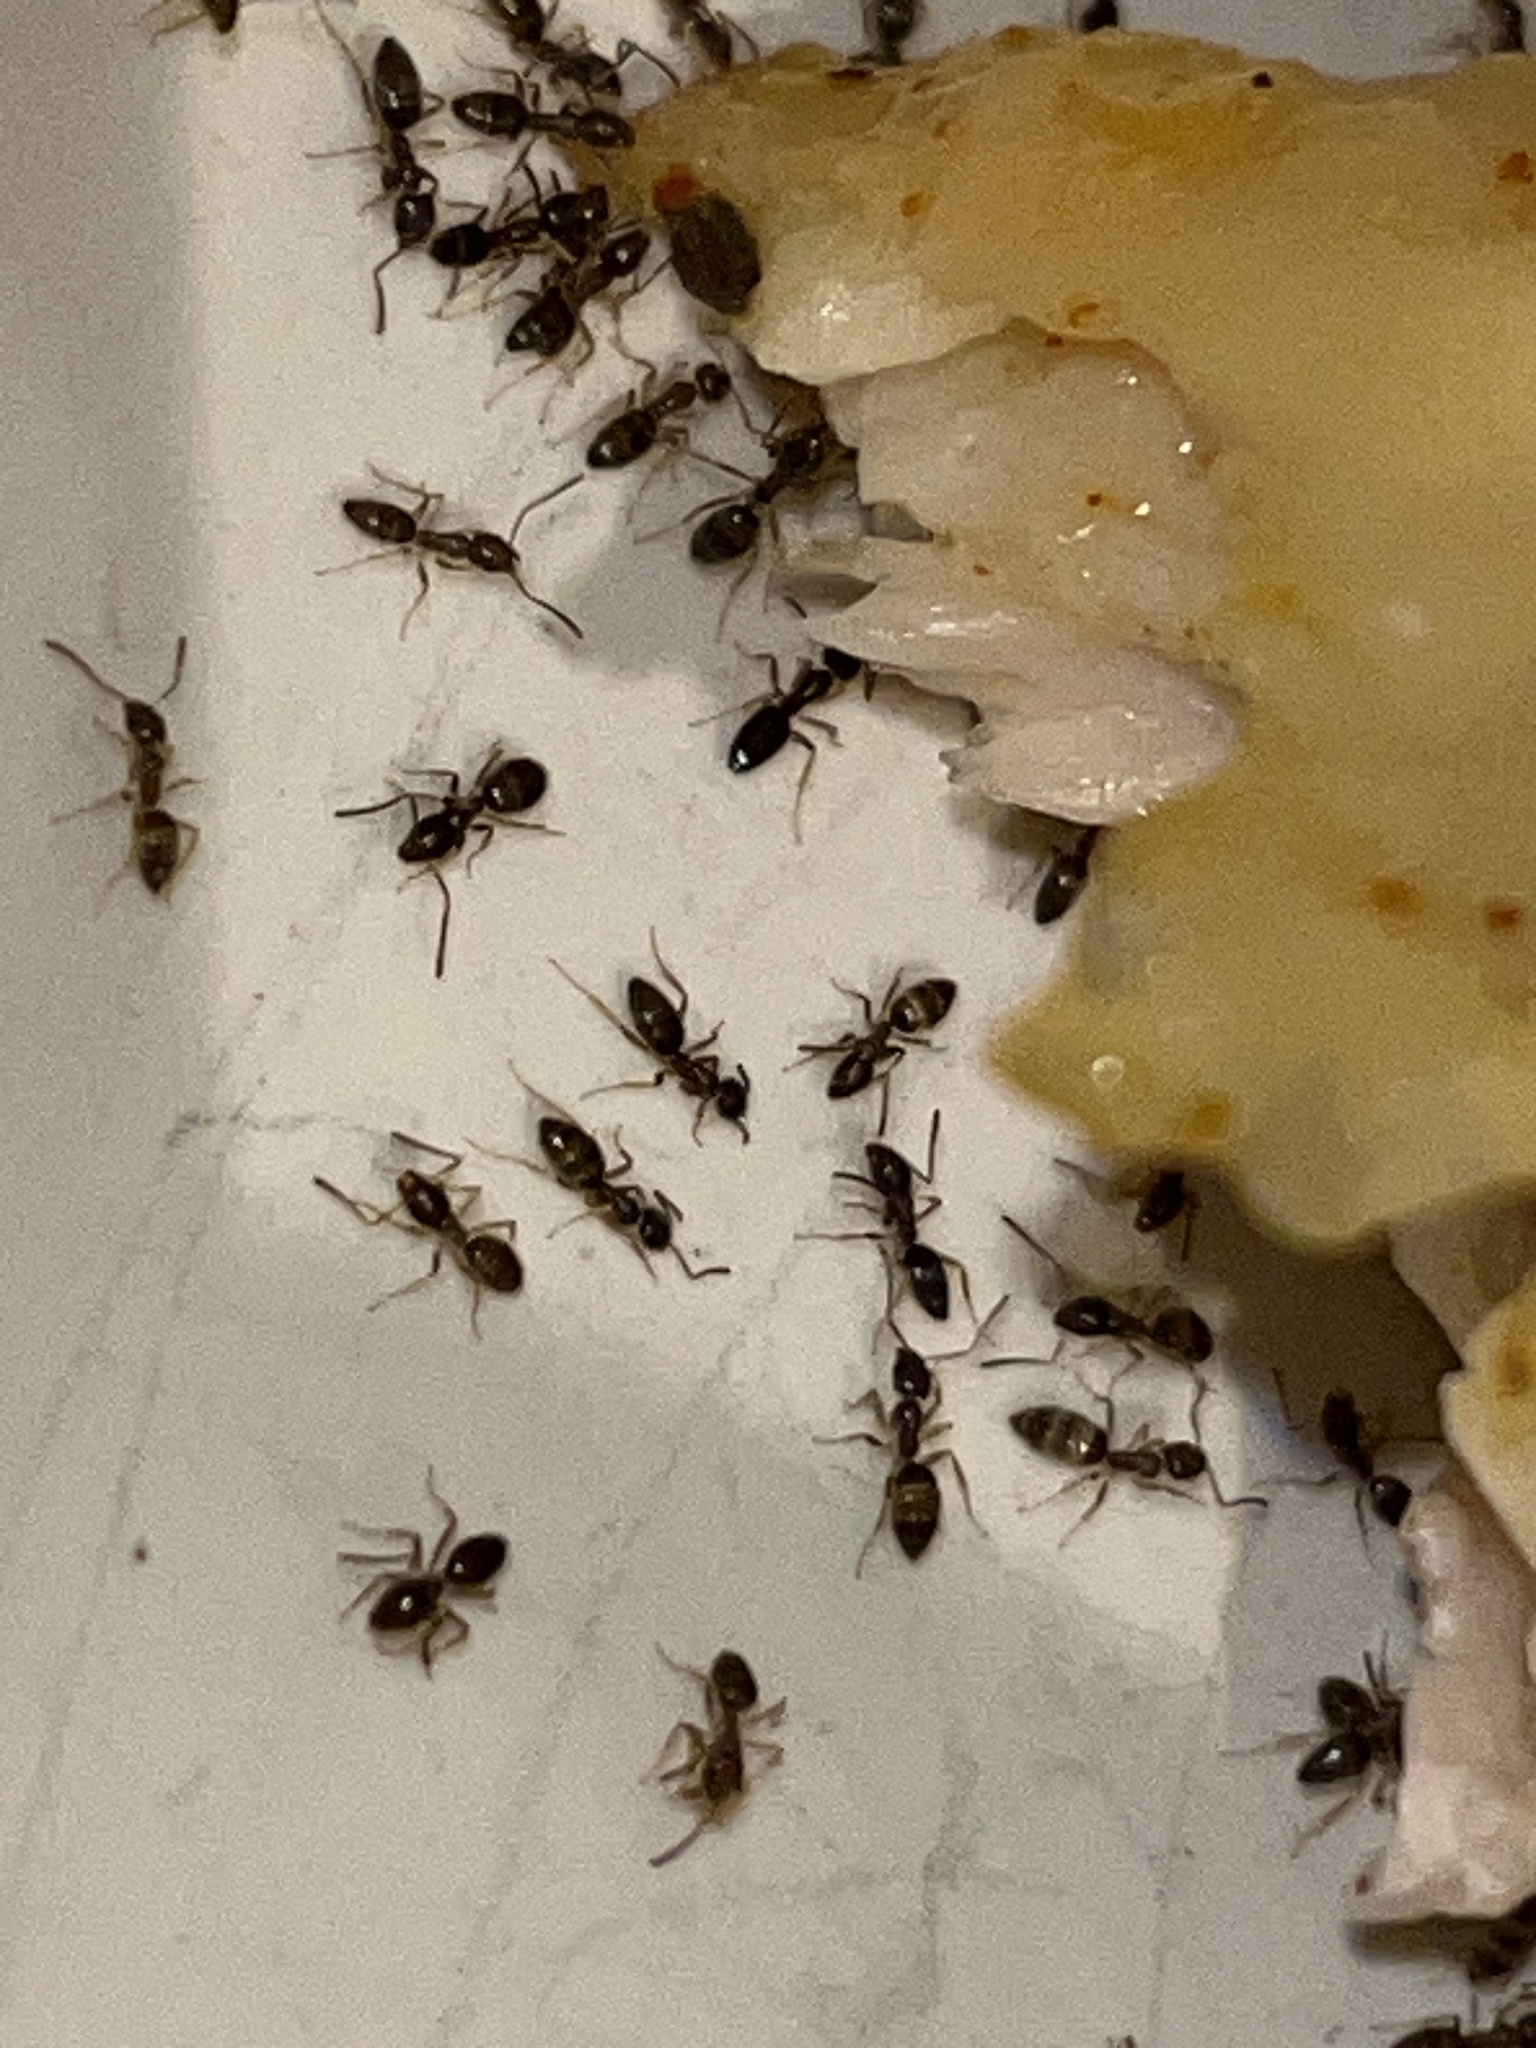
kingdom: Animalia
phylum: Arthropoda
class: Insecta
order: Hymenoptera
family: Formicidae
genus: Tapinoma
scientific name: Tapinoma sessile
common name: Odorous house ant
